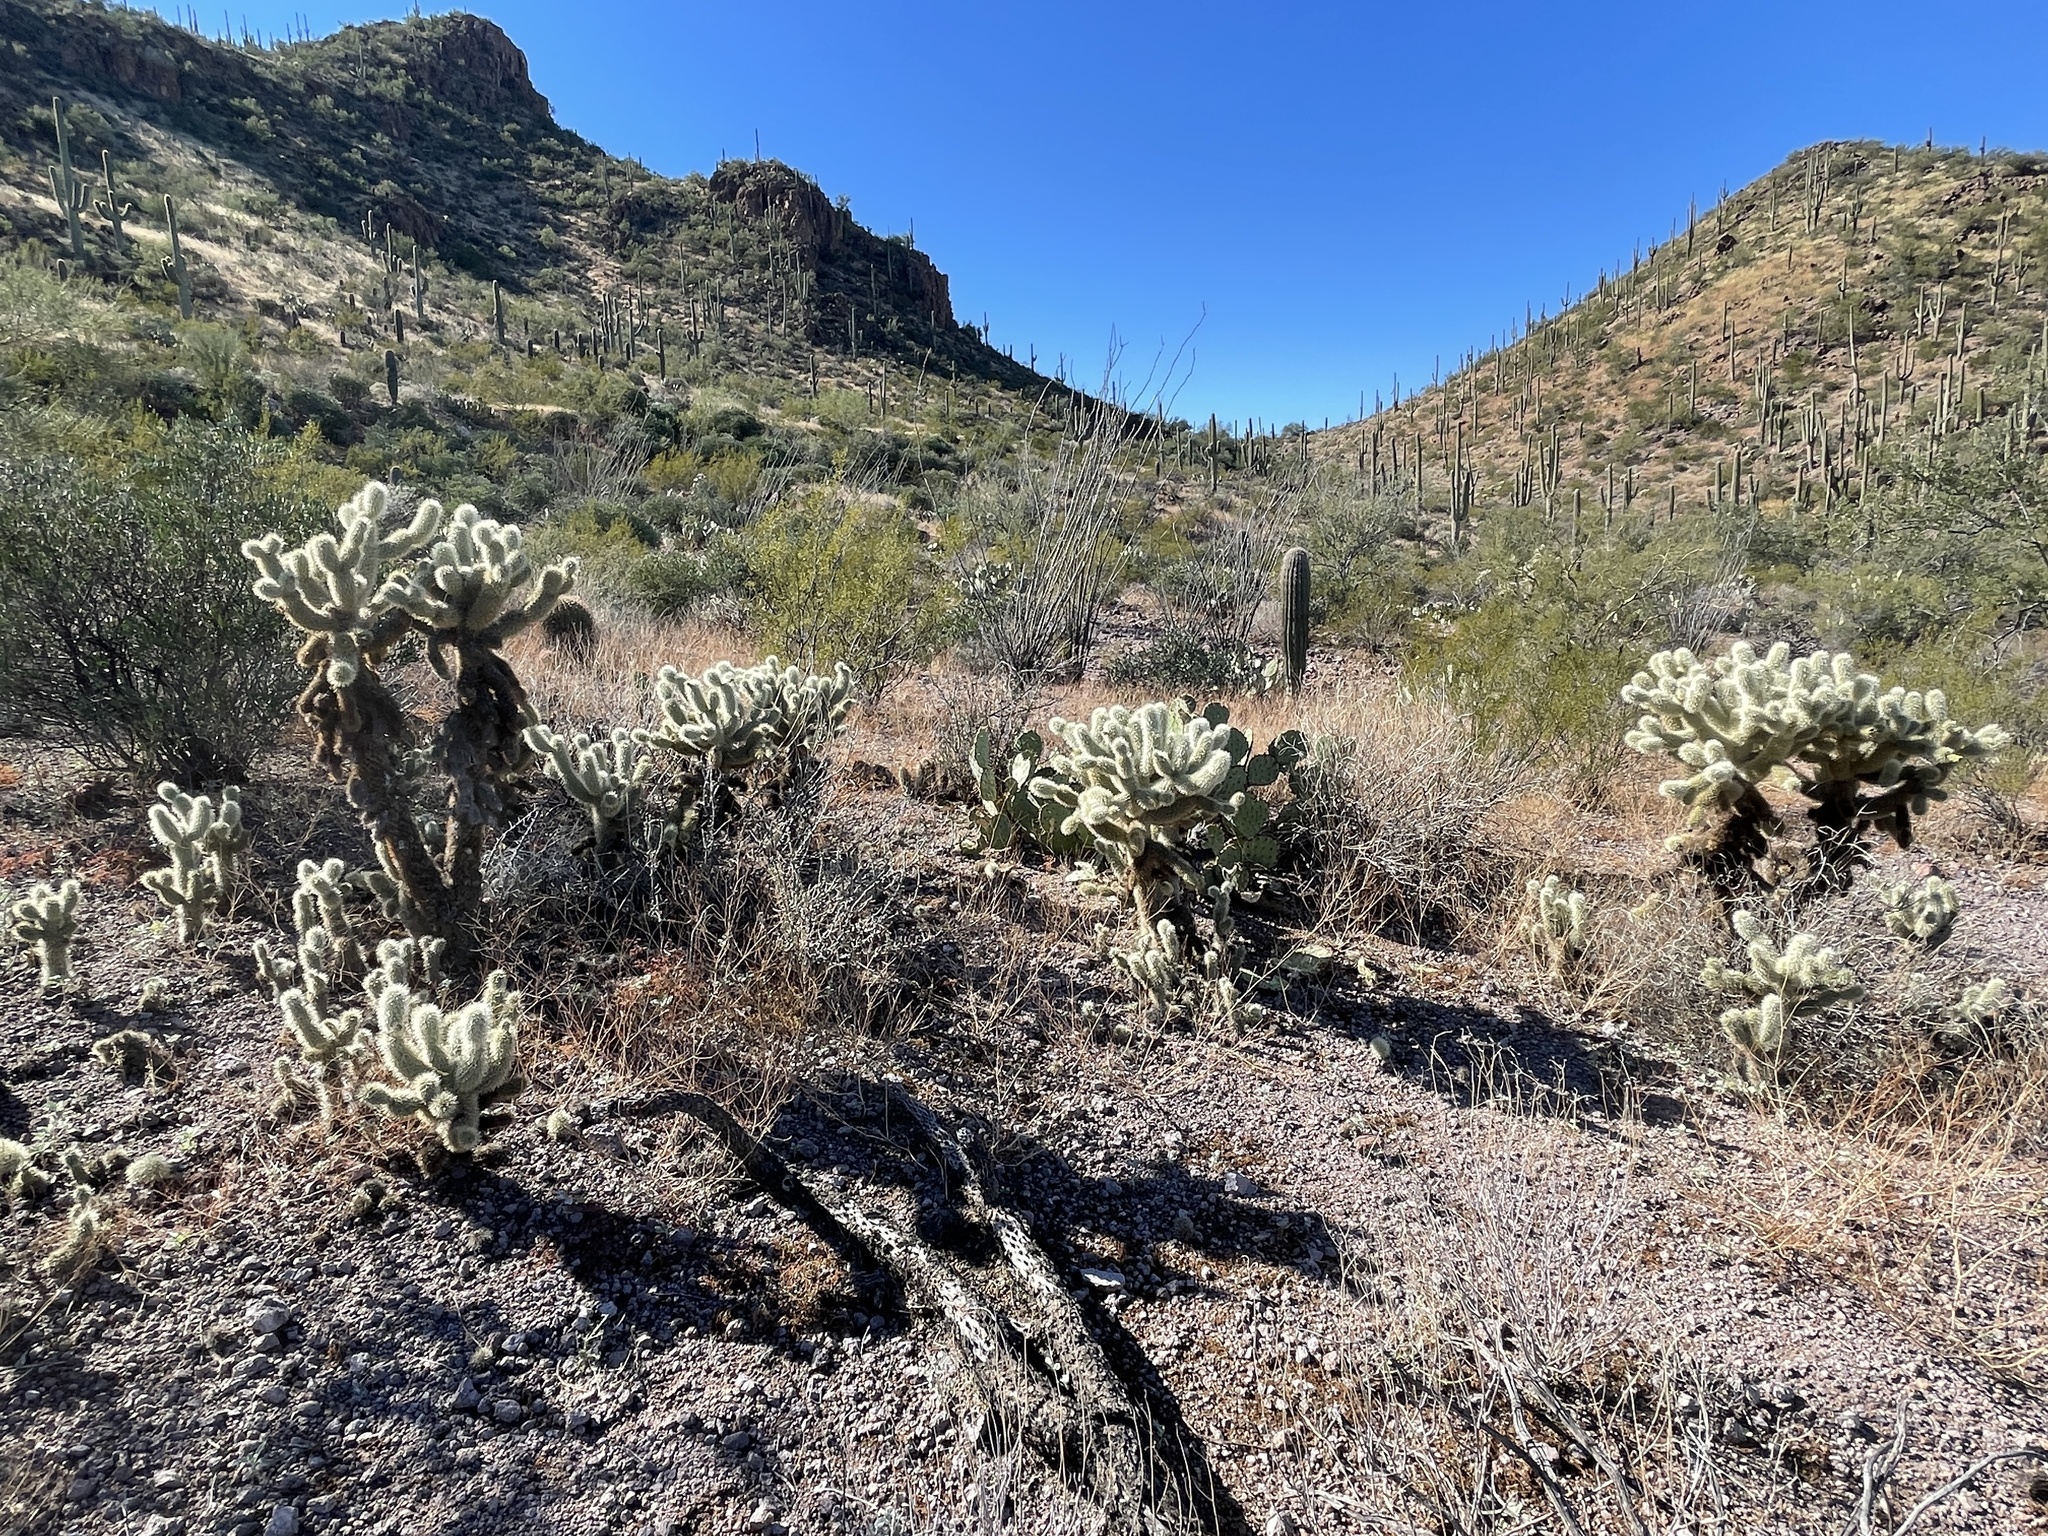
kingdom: Plantae
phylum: Tracheophyta
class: Magnoliopsida
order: Caryophyllales
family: Cactaceae
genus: Cylindropuntia
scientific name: Cylindropuntia fosbergii
